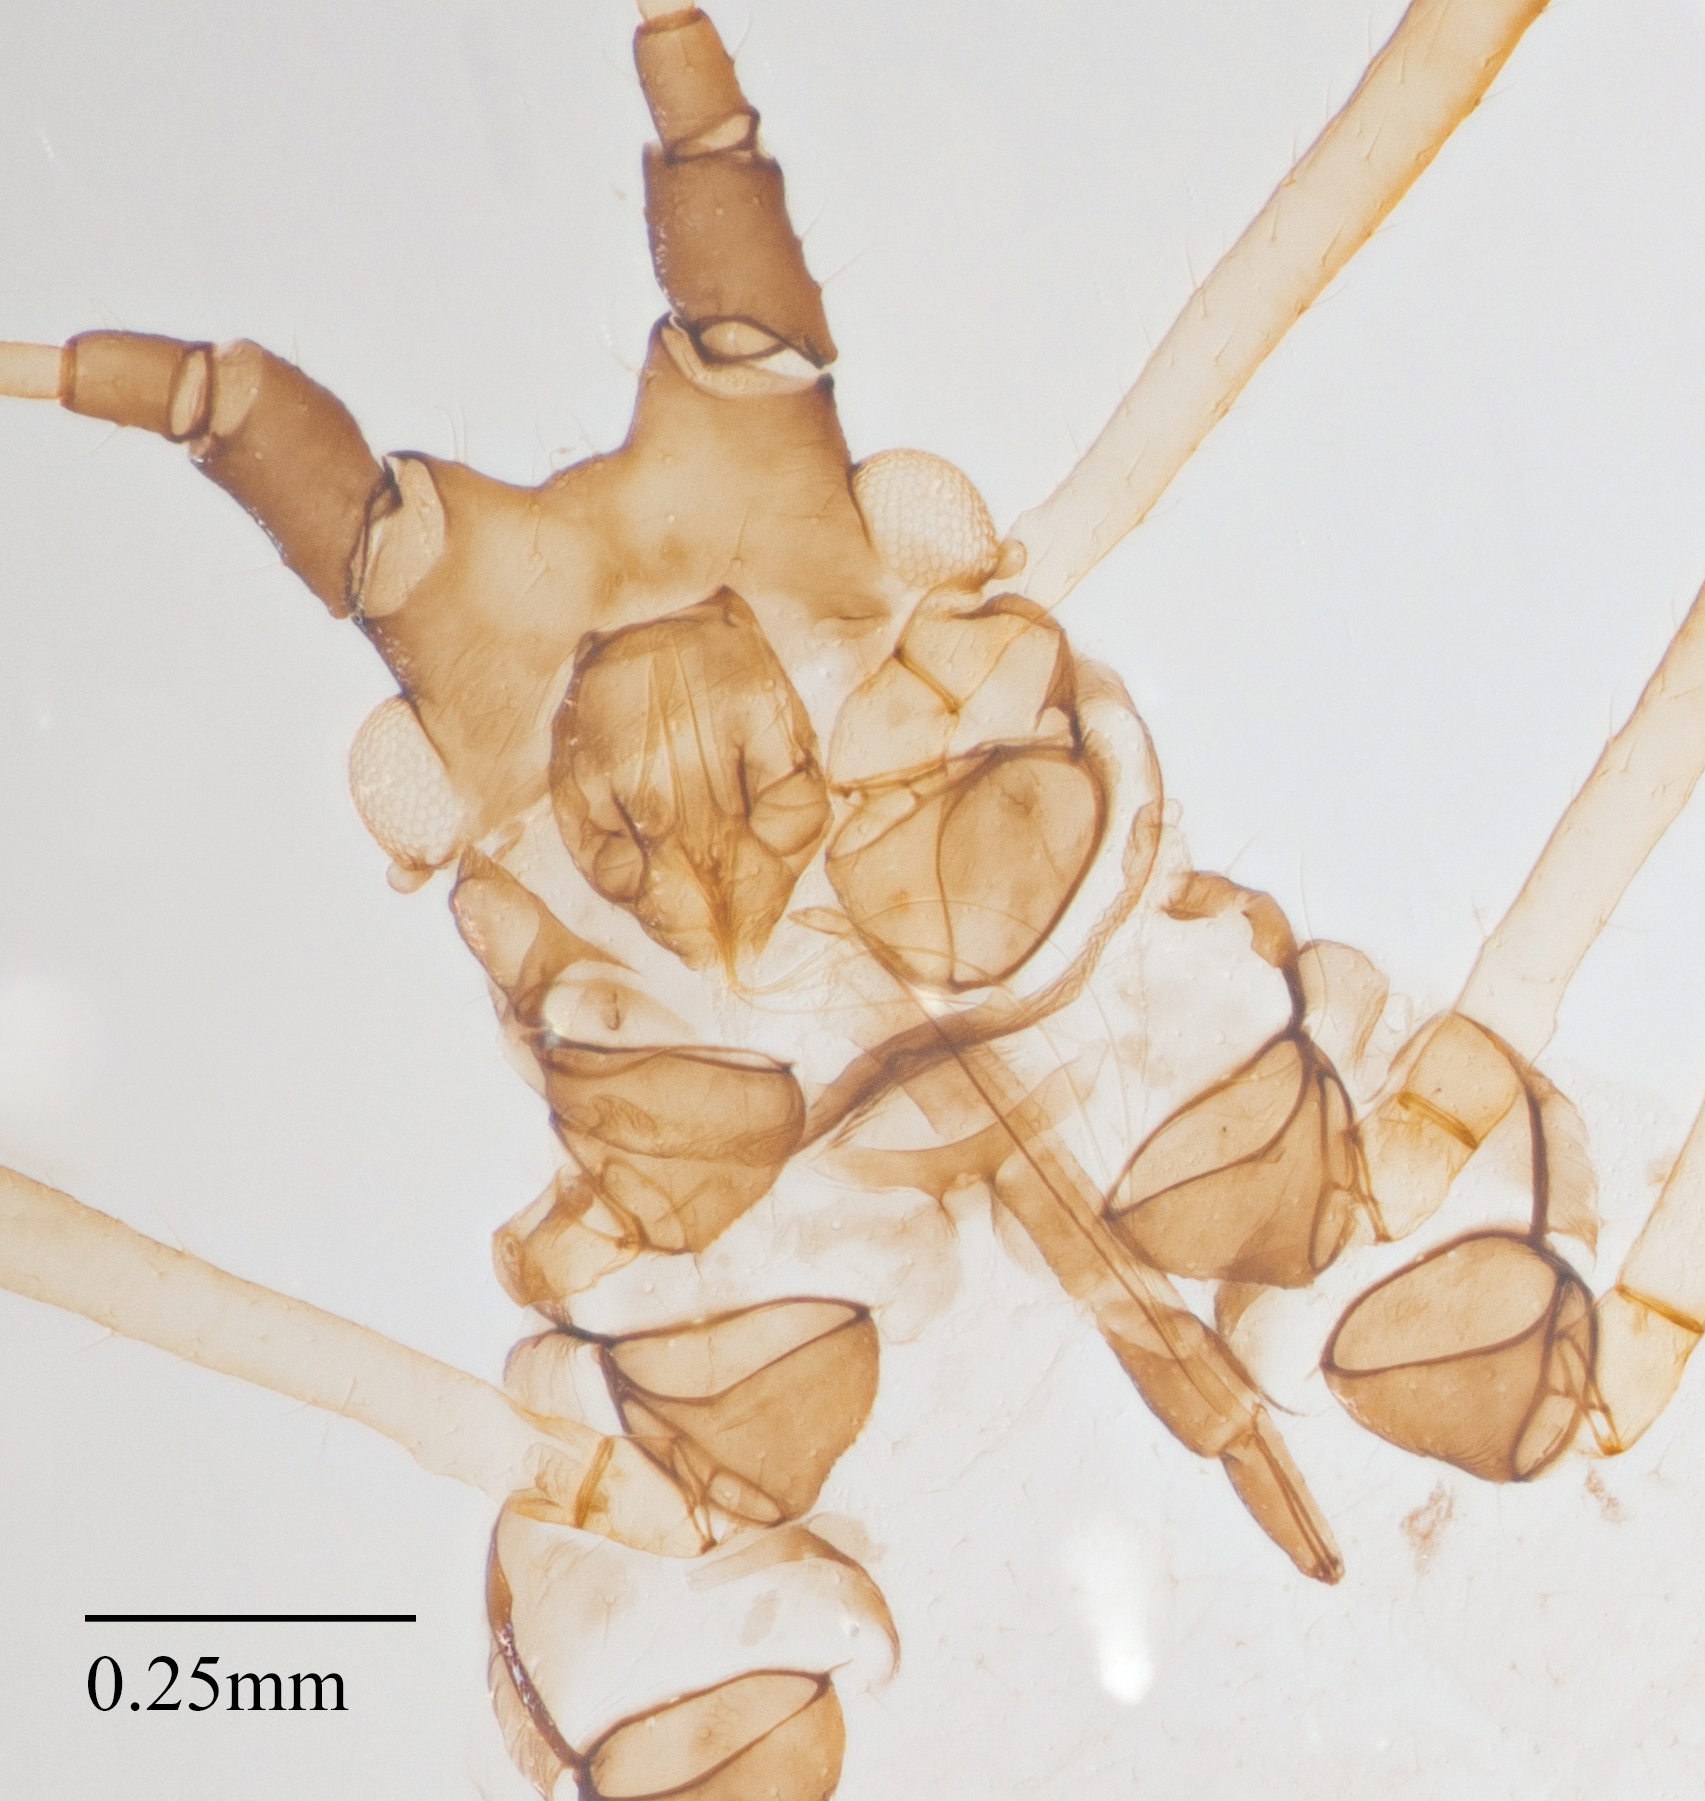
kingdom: Animalia
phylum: Arthropoda
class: Insecta
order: Hemiptera
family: Aphididae
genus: Uroleucon
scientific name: Uroleucon sonchi
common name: Large sowthistle aphid
